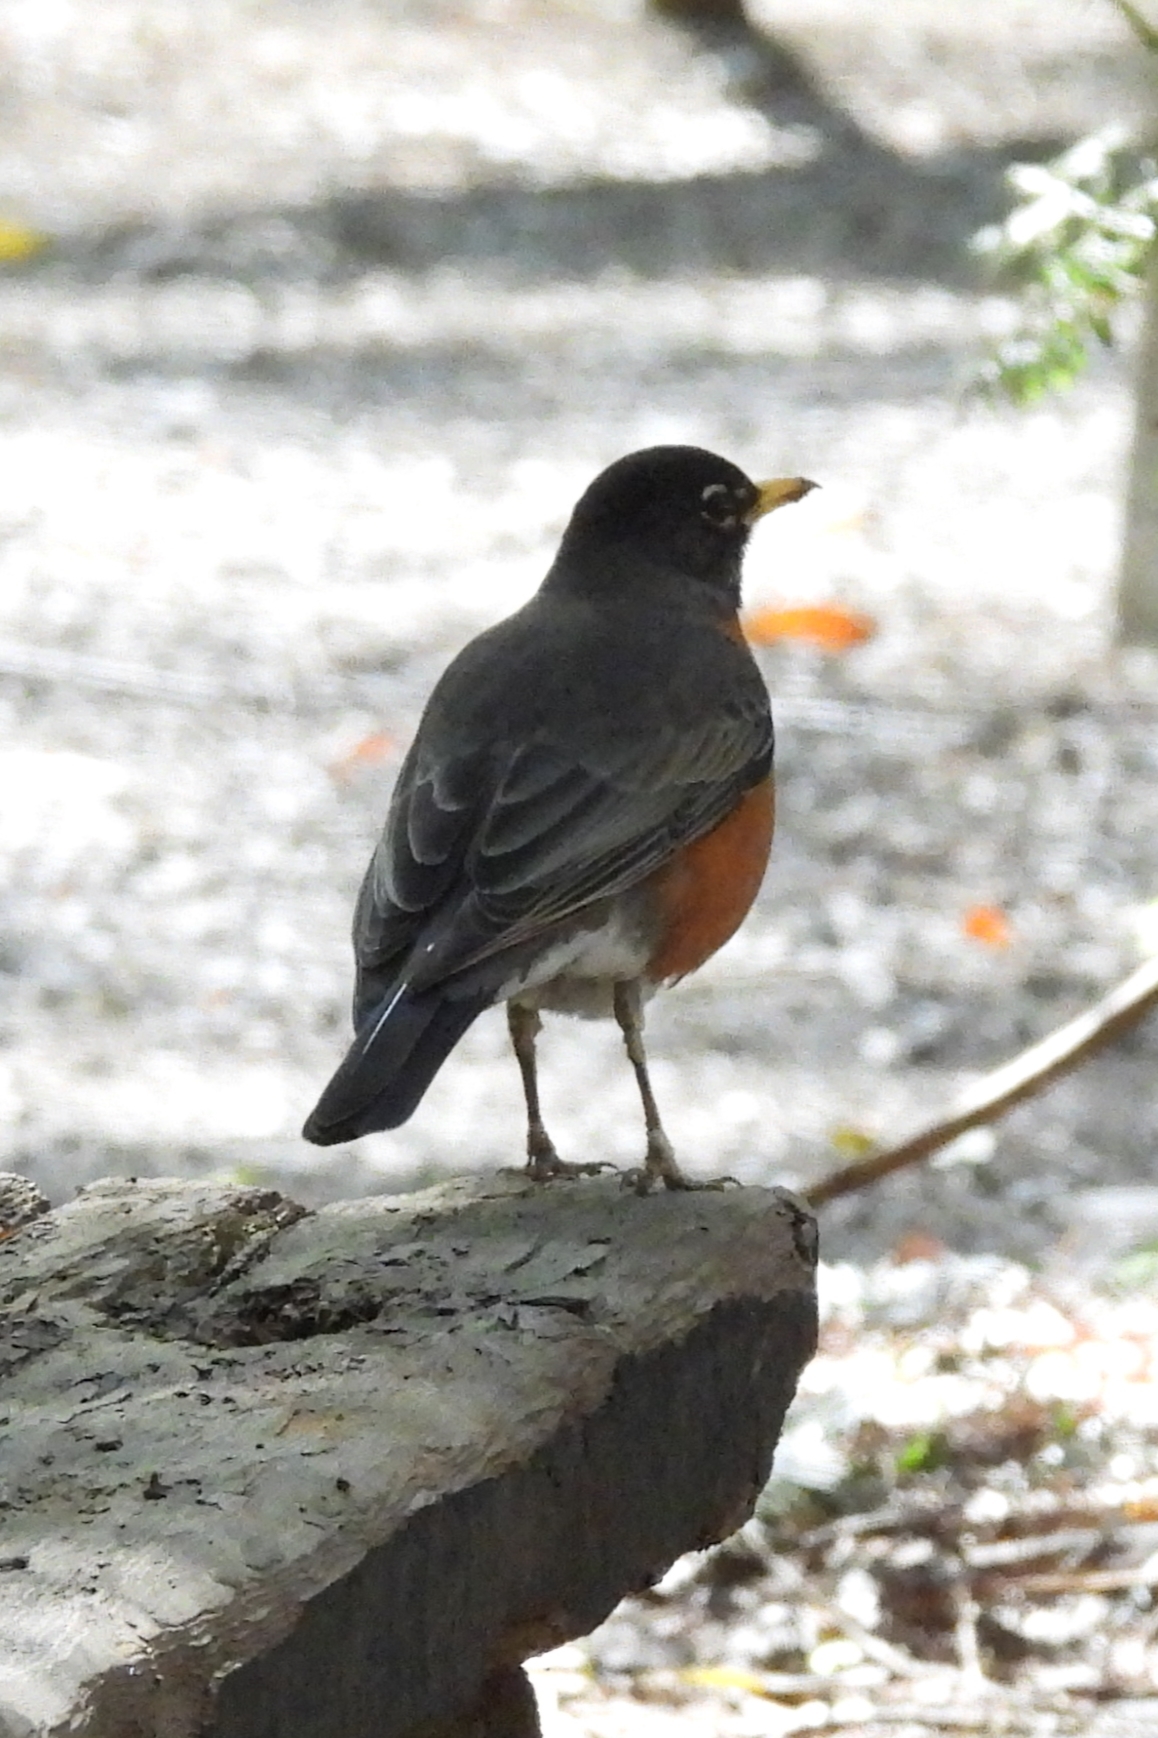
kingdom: Animalia
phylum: Chordata
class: Aves
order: Passeriformes
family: Turdidae
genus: Turdus
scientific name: Turdus migratorius
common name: American robin
